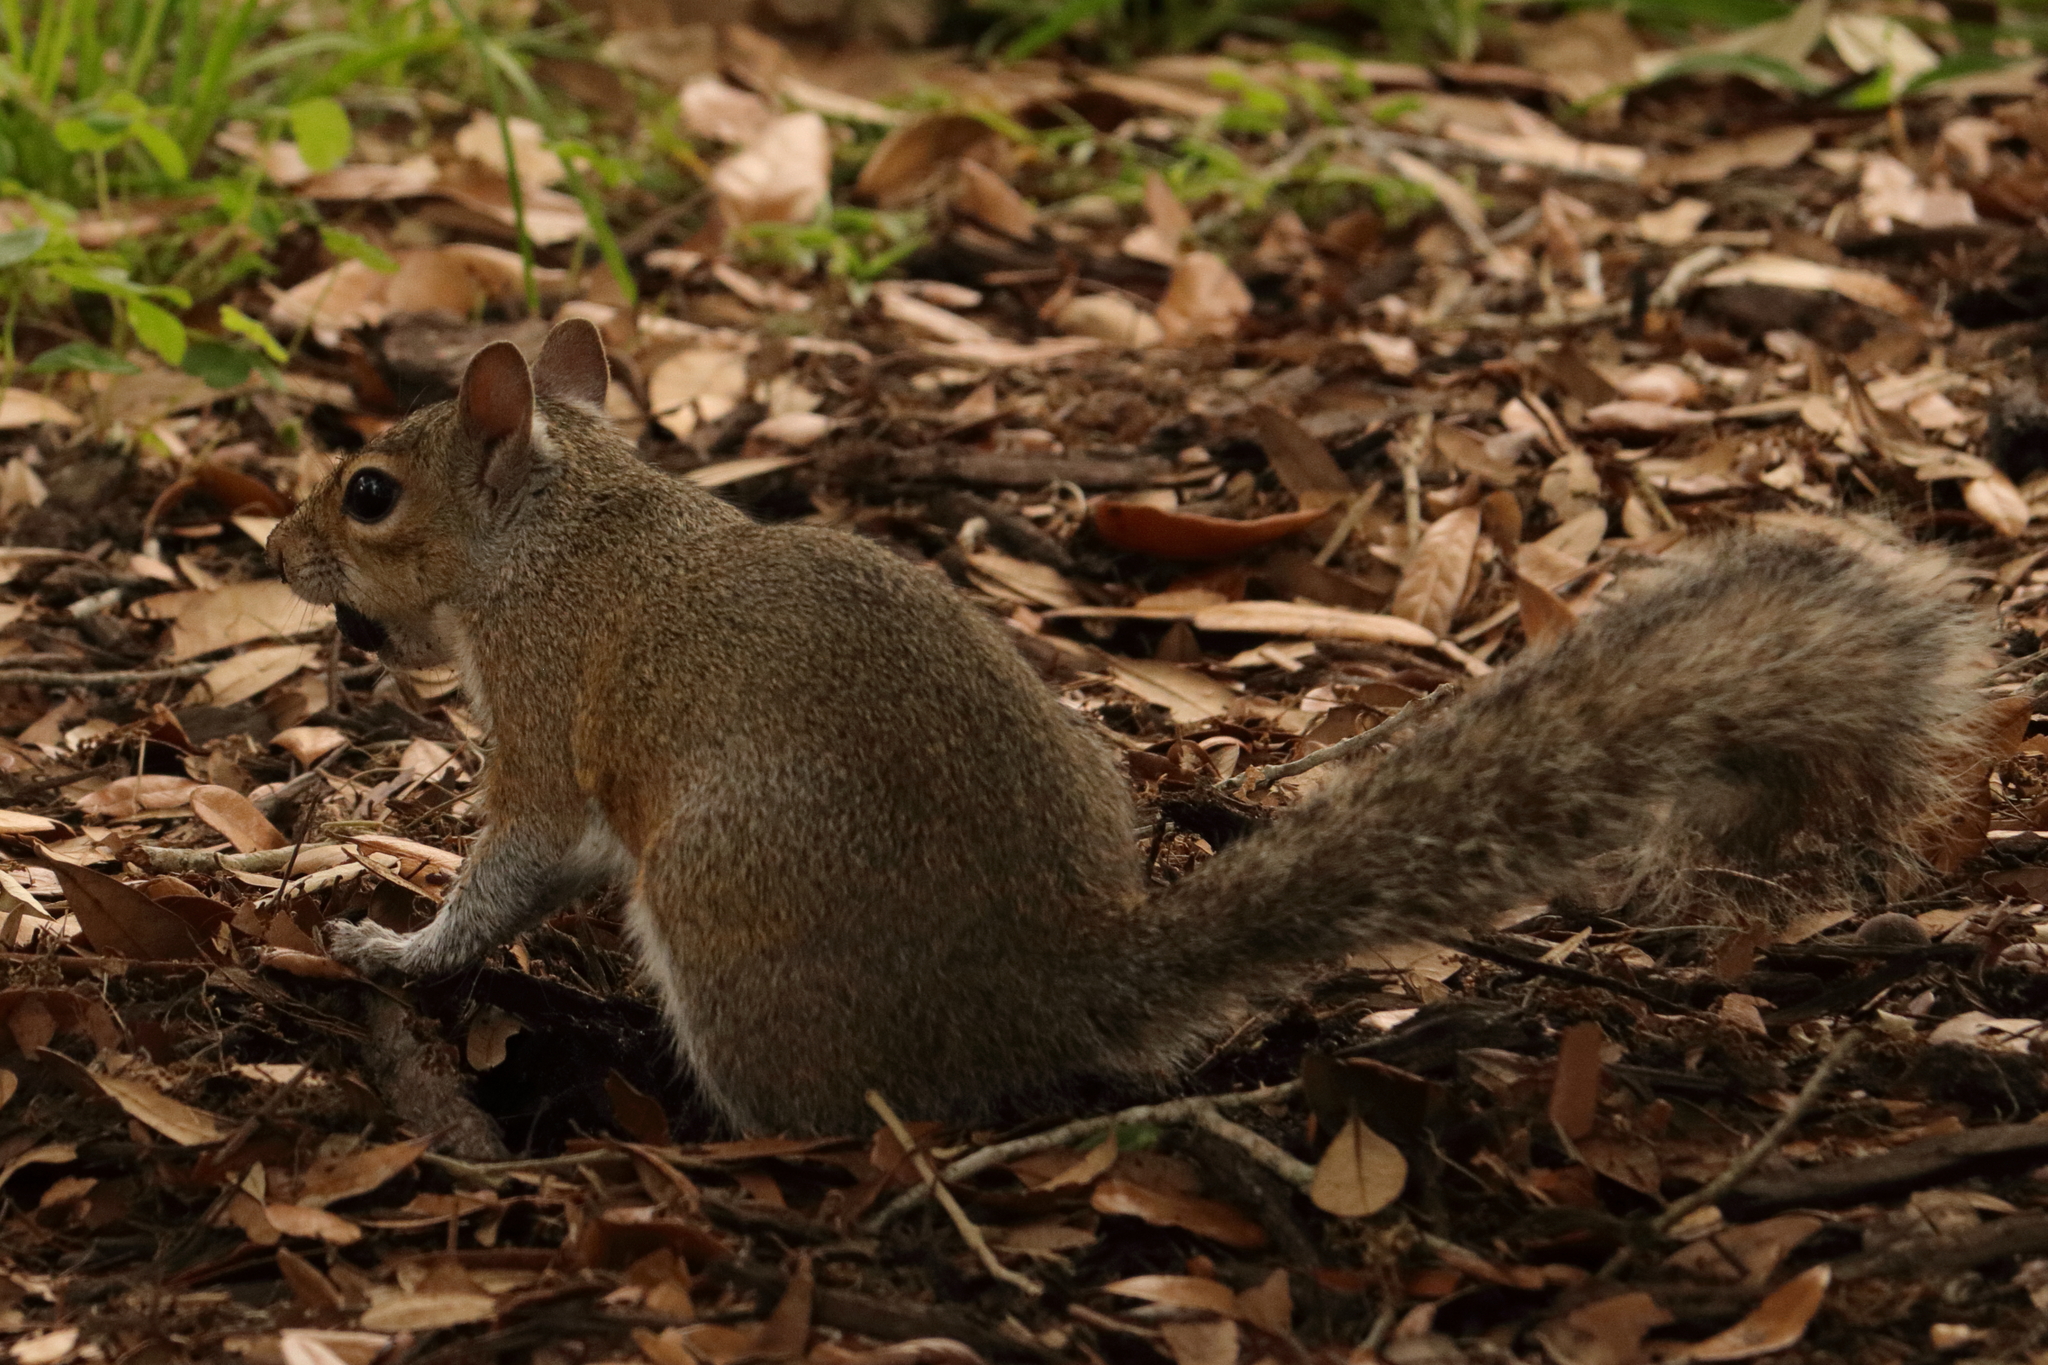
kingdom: Animalia
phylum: Chordata
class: Mammalia
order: Rodentia
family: Sciuridae
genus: Sciurus
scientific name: Sciurus carolinensis
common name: Eastern gray squirrel
